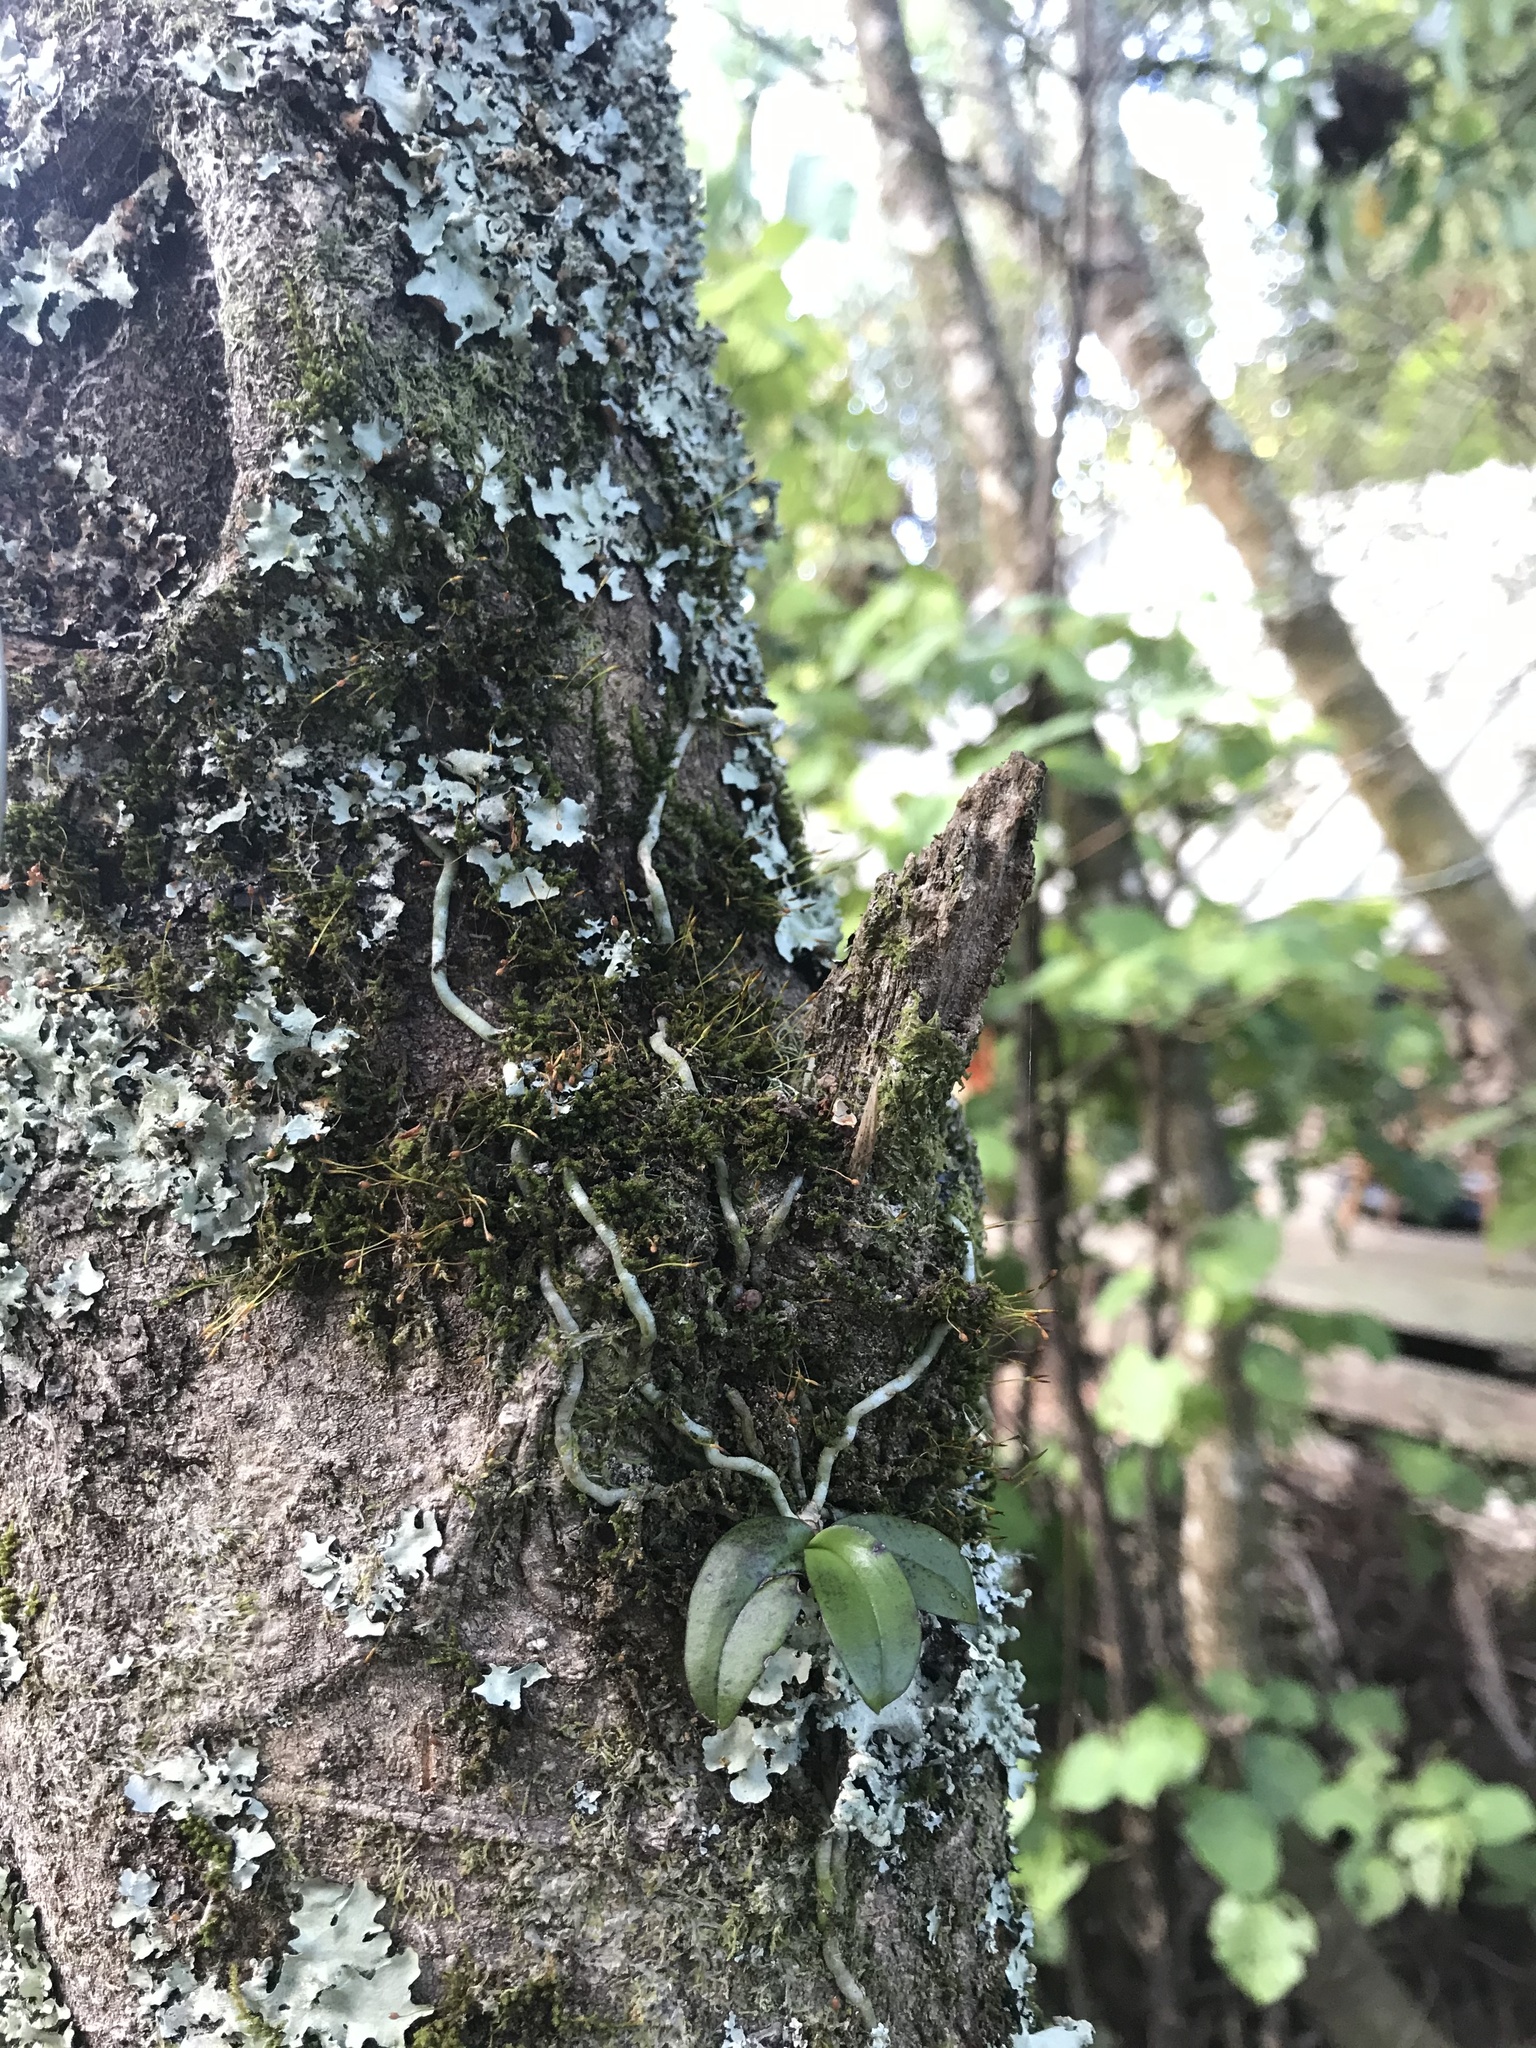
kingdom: Plantae
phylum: Tracheophyta
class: Liliopsida
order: Asparagales
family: Orchidaceae
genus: Drymoanthus
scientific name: Drymoanthus adversus
